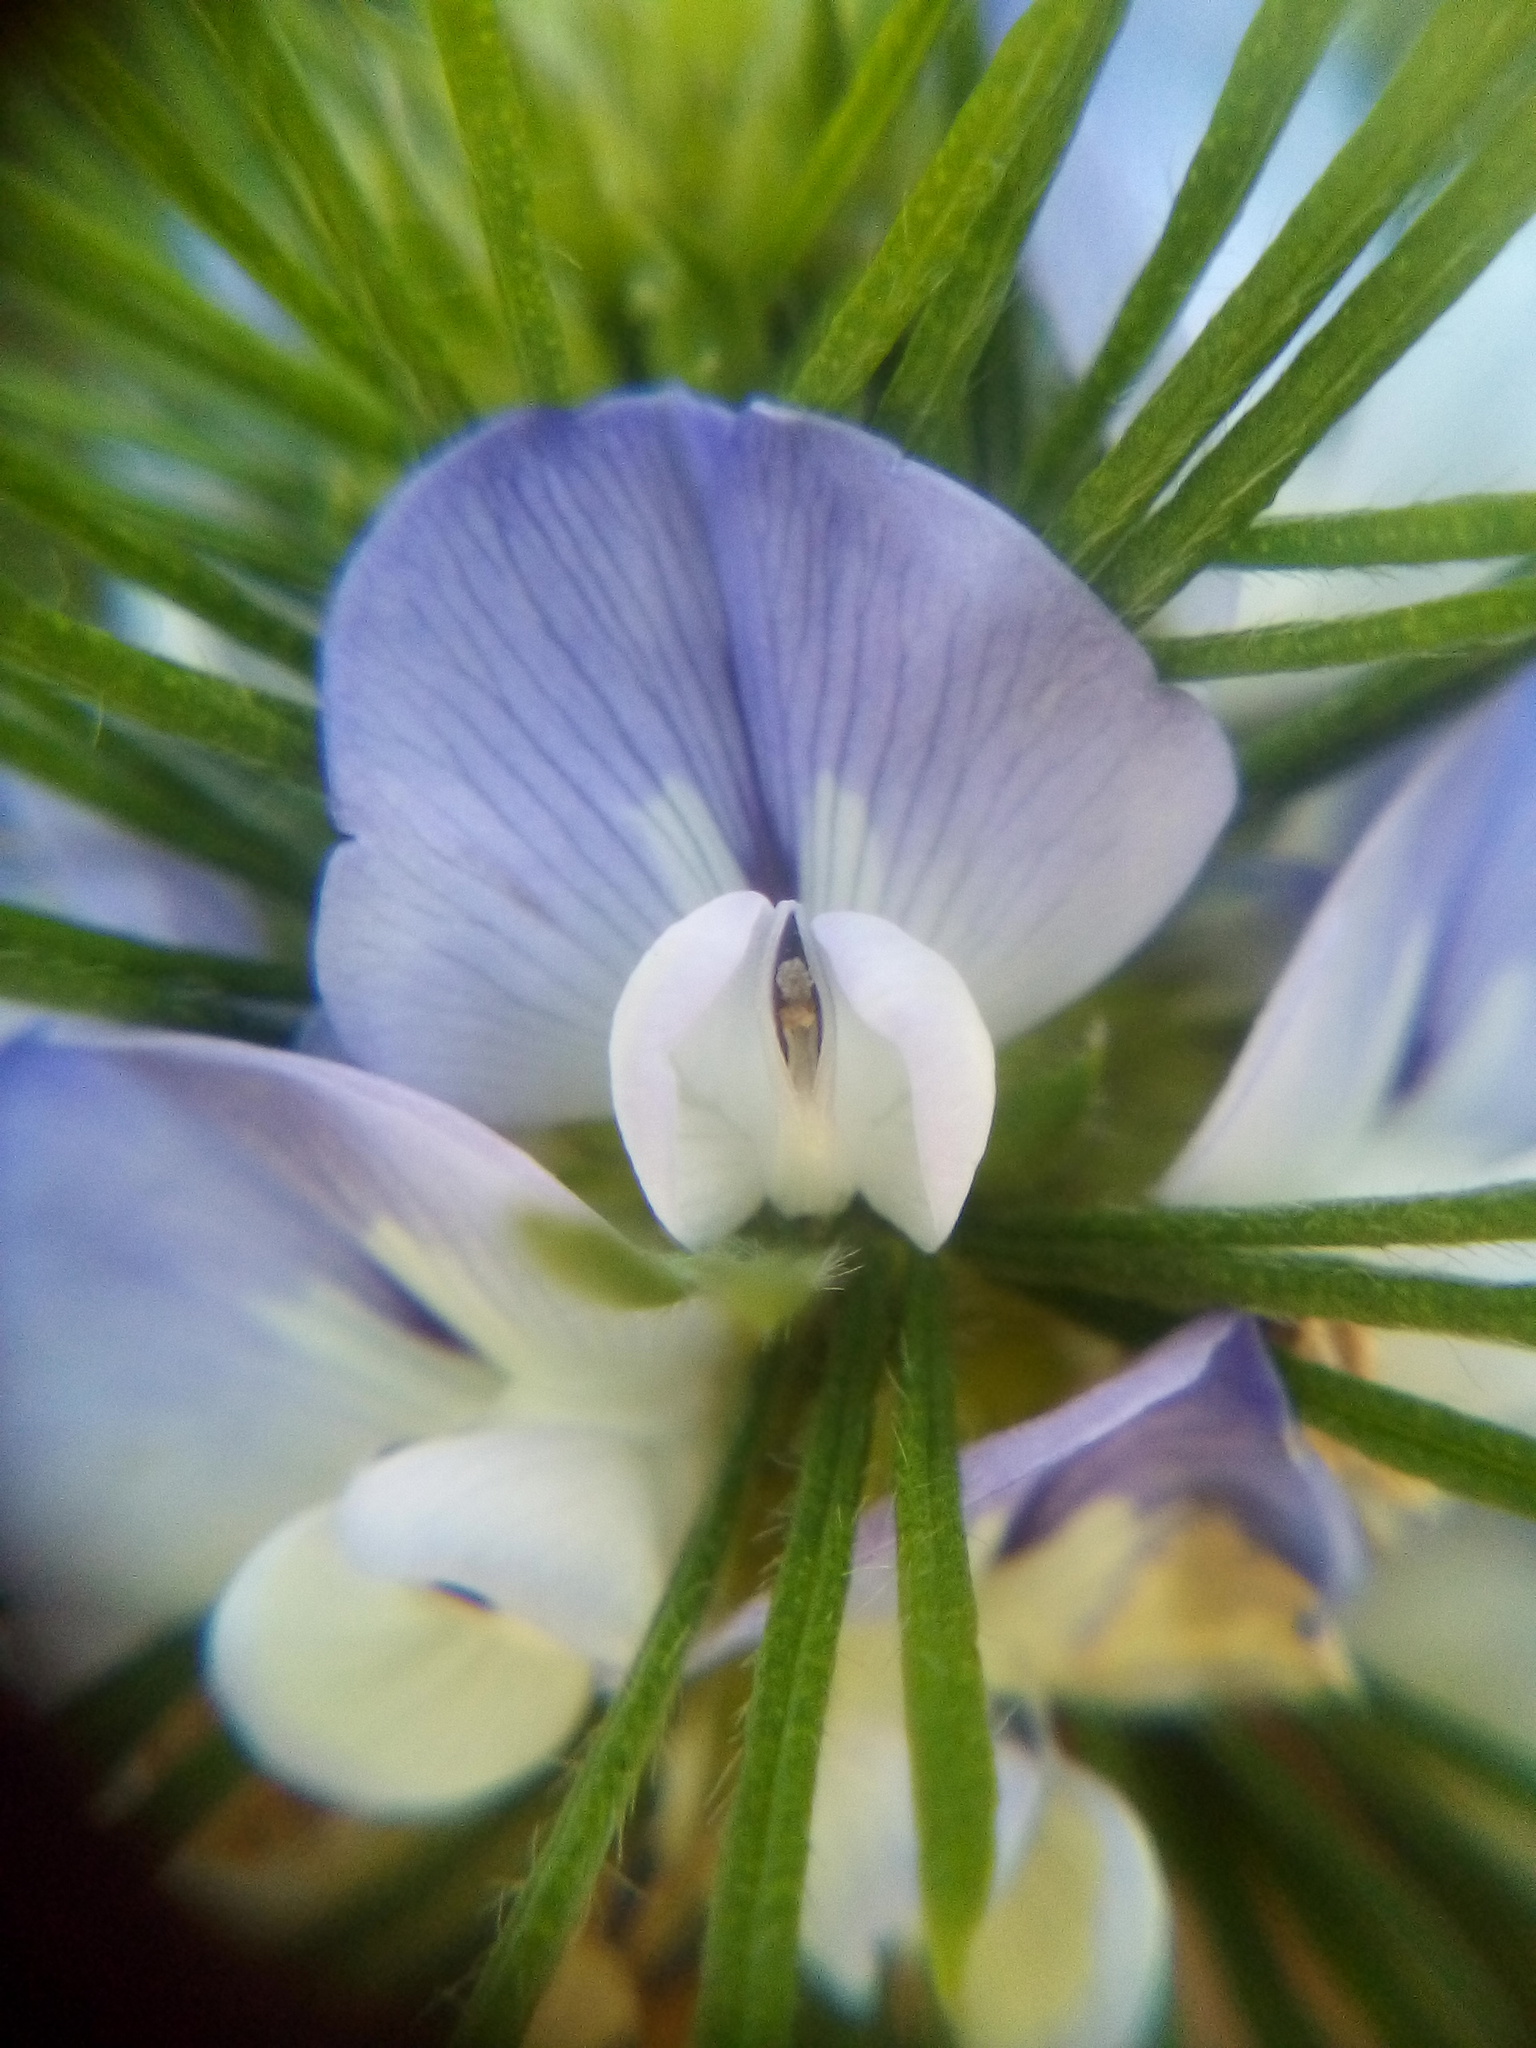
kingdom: Plantae
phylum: Tracheophyta
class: Magnoliopsida
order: Fabales
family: Fabaceae
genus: Psoralea
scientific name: Psoralea pinnata
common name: African scurfpea
